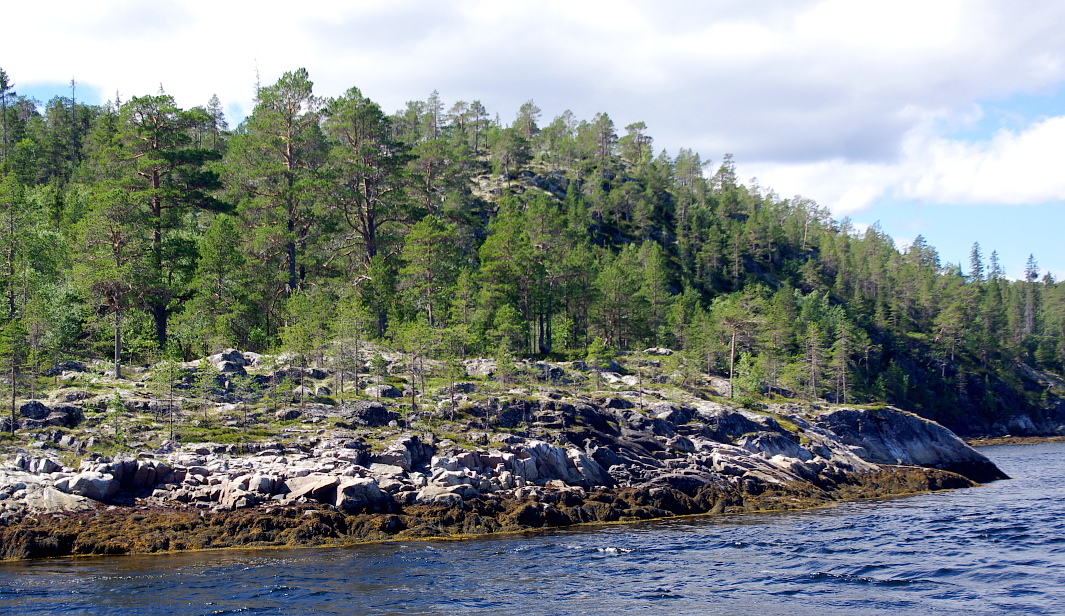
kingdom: Plantae
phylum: Tracheophyta
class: Pinopsida
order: Pinales
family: Pinaceae
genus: Pinus
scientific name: Pinus sylvestris
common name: Scots pine
